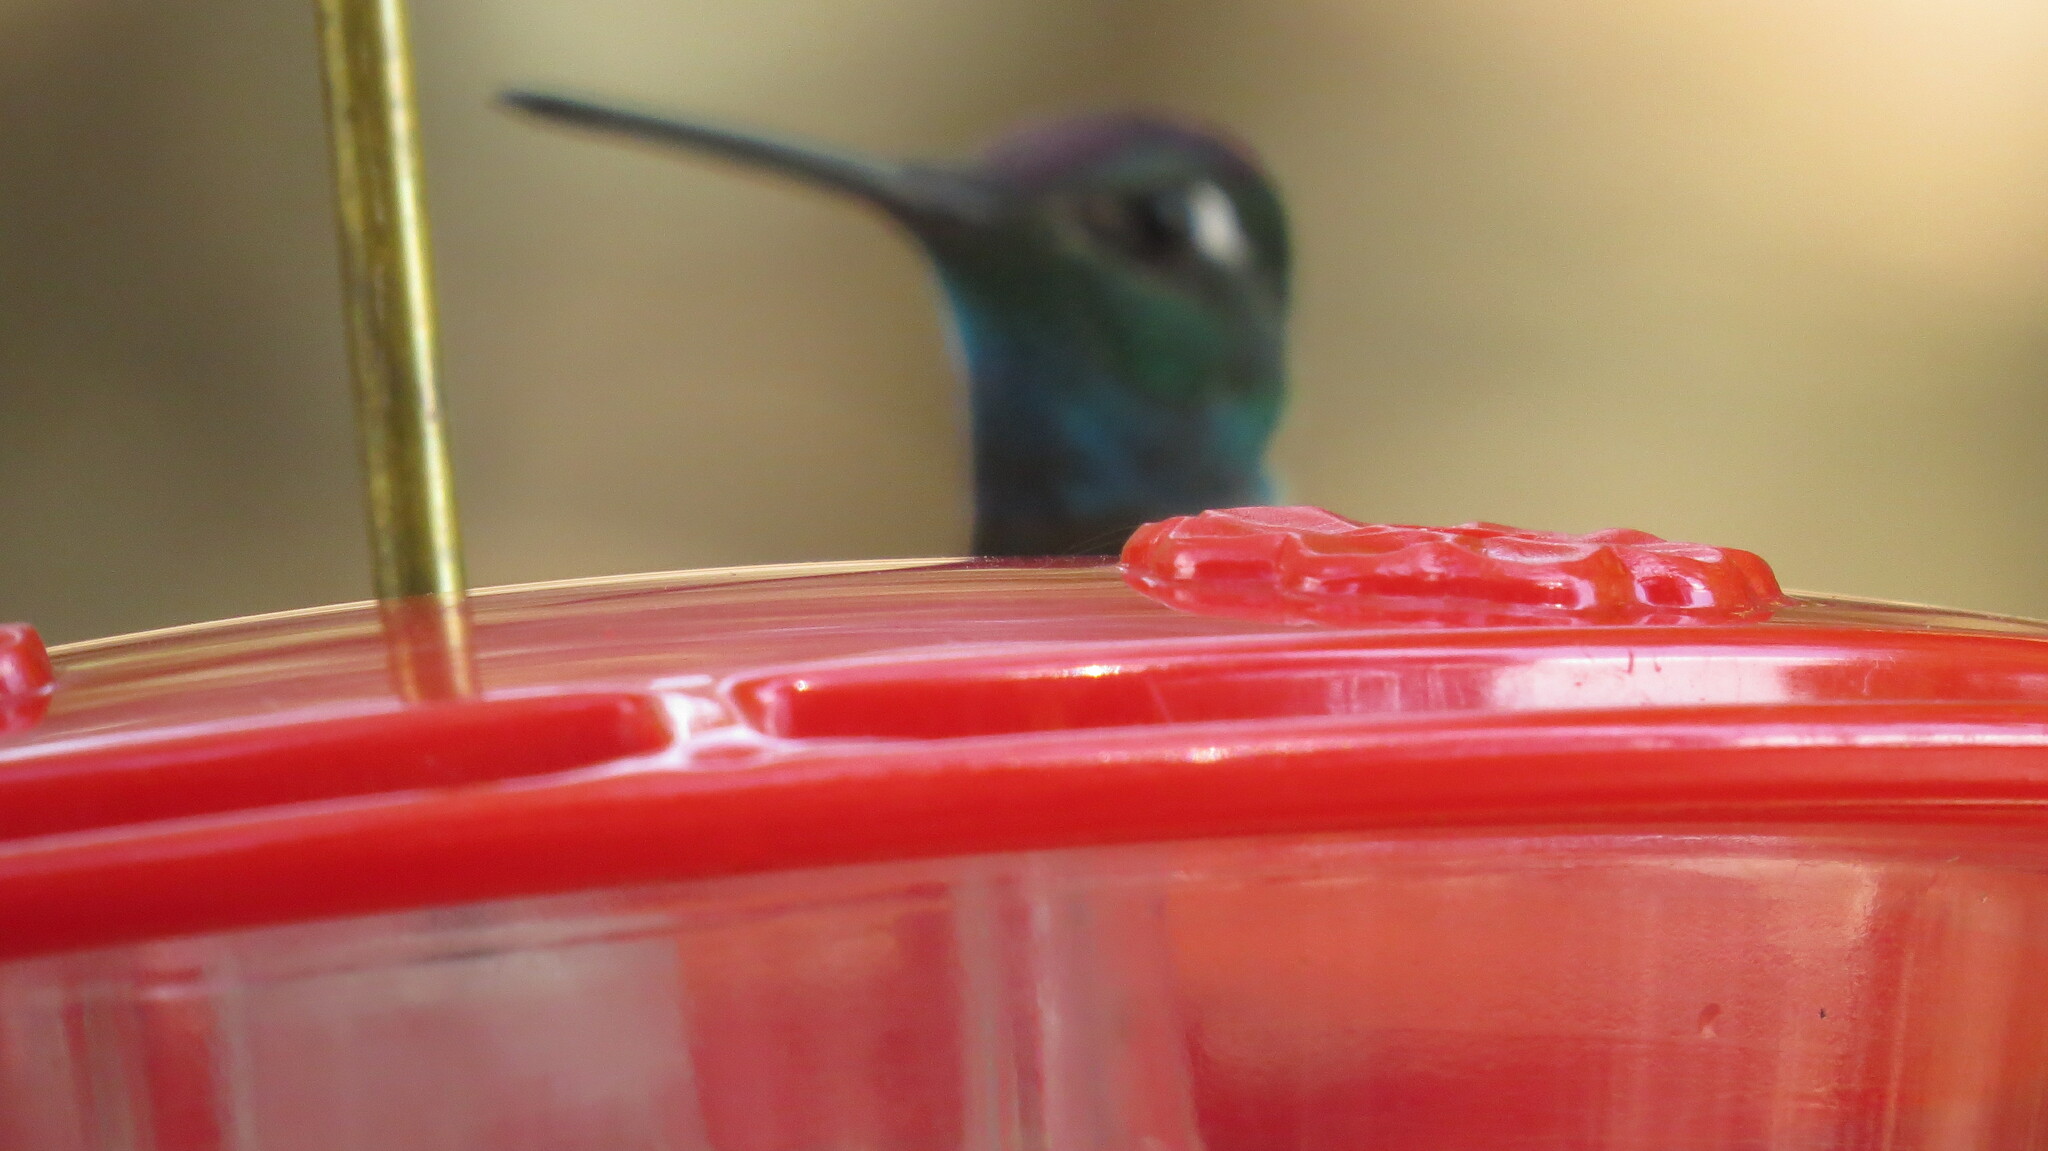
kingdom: Animalia
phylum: Chordata
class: Aves
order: Apodiformes
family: Trochilidae
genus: Eugenes
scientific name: Eugenes fulgens
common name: Magnificent hummingbird
